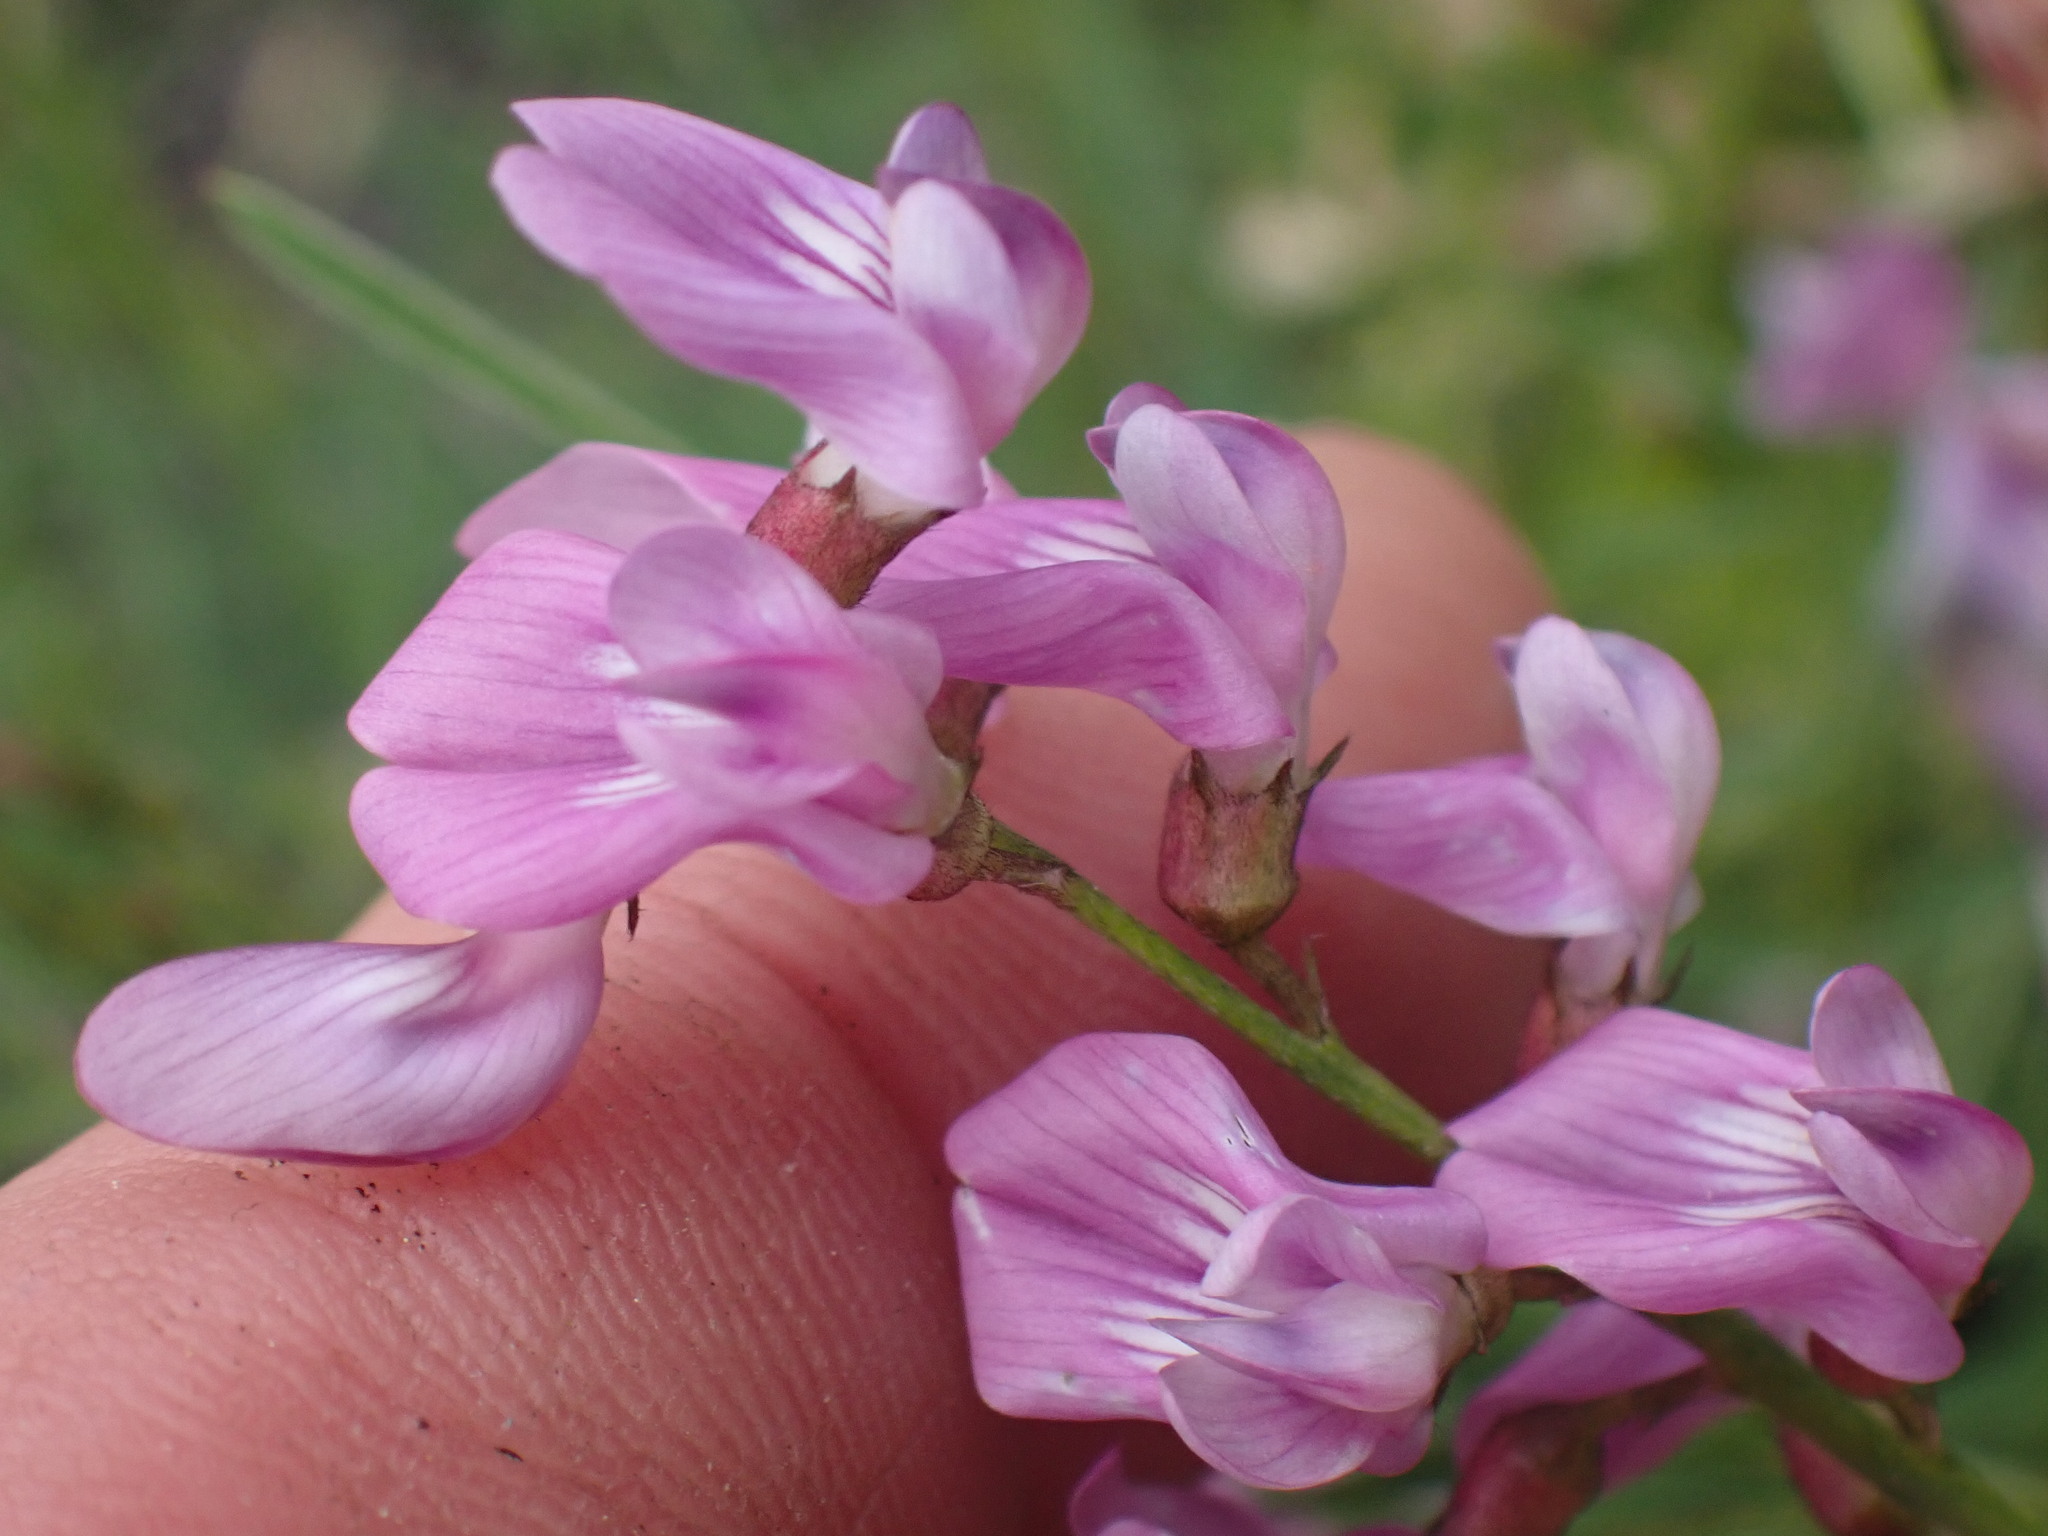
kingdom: Plantae
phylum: Tracheophyta
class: Magnoliopsida
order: Fabales
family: Fabaceae
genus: Astragalus
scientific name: Astragalus miser
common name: Timber milkvetch
